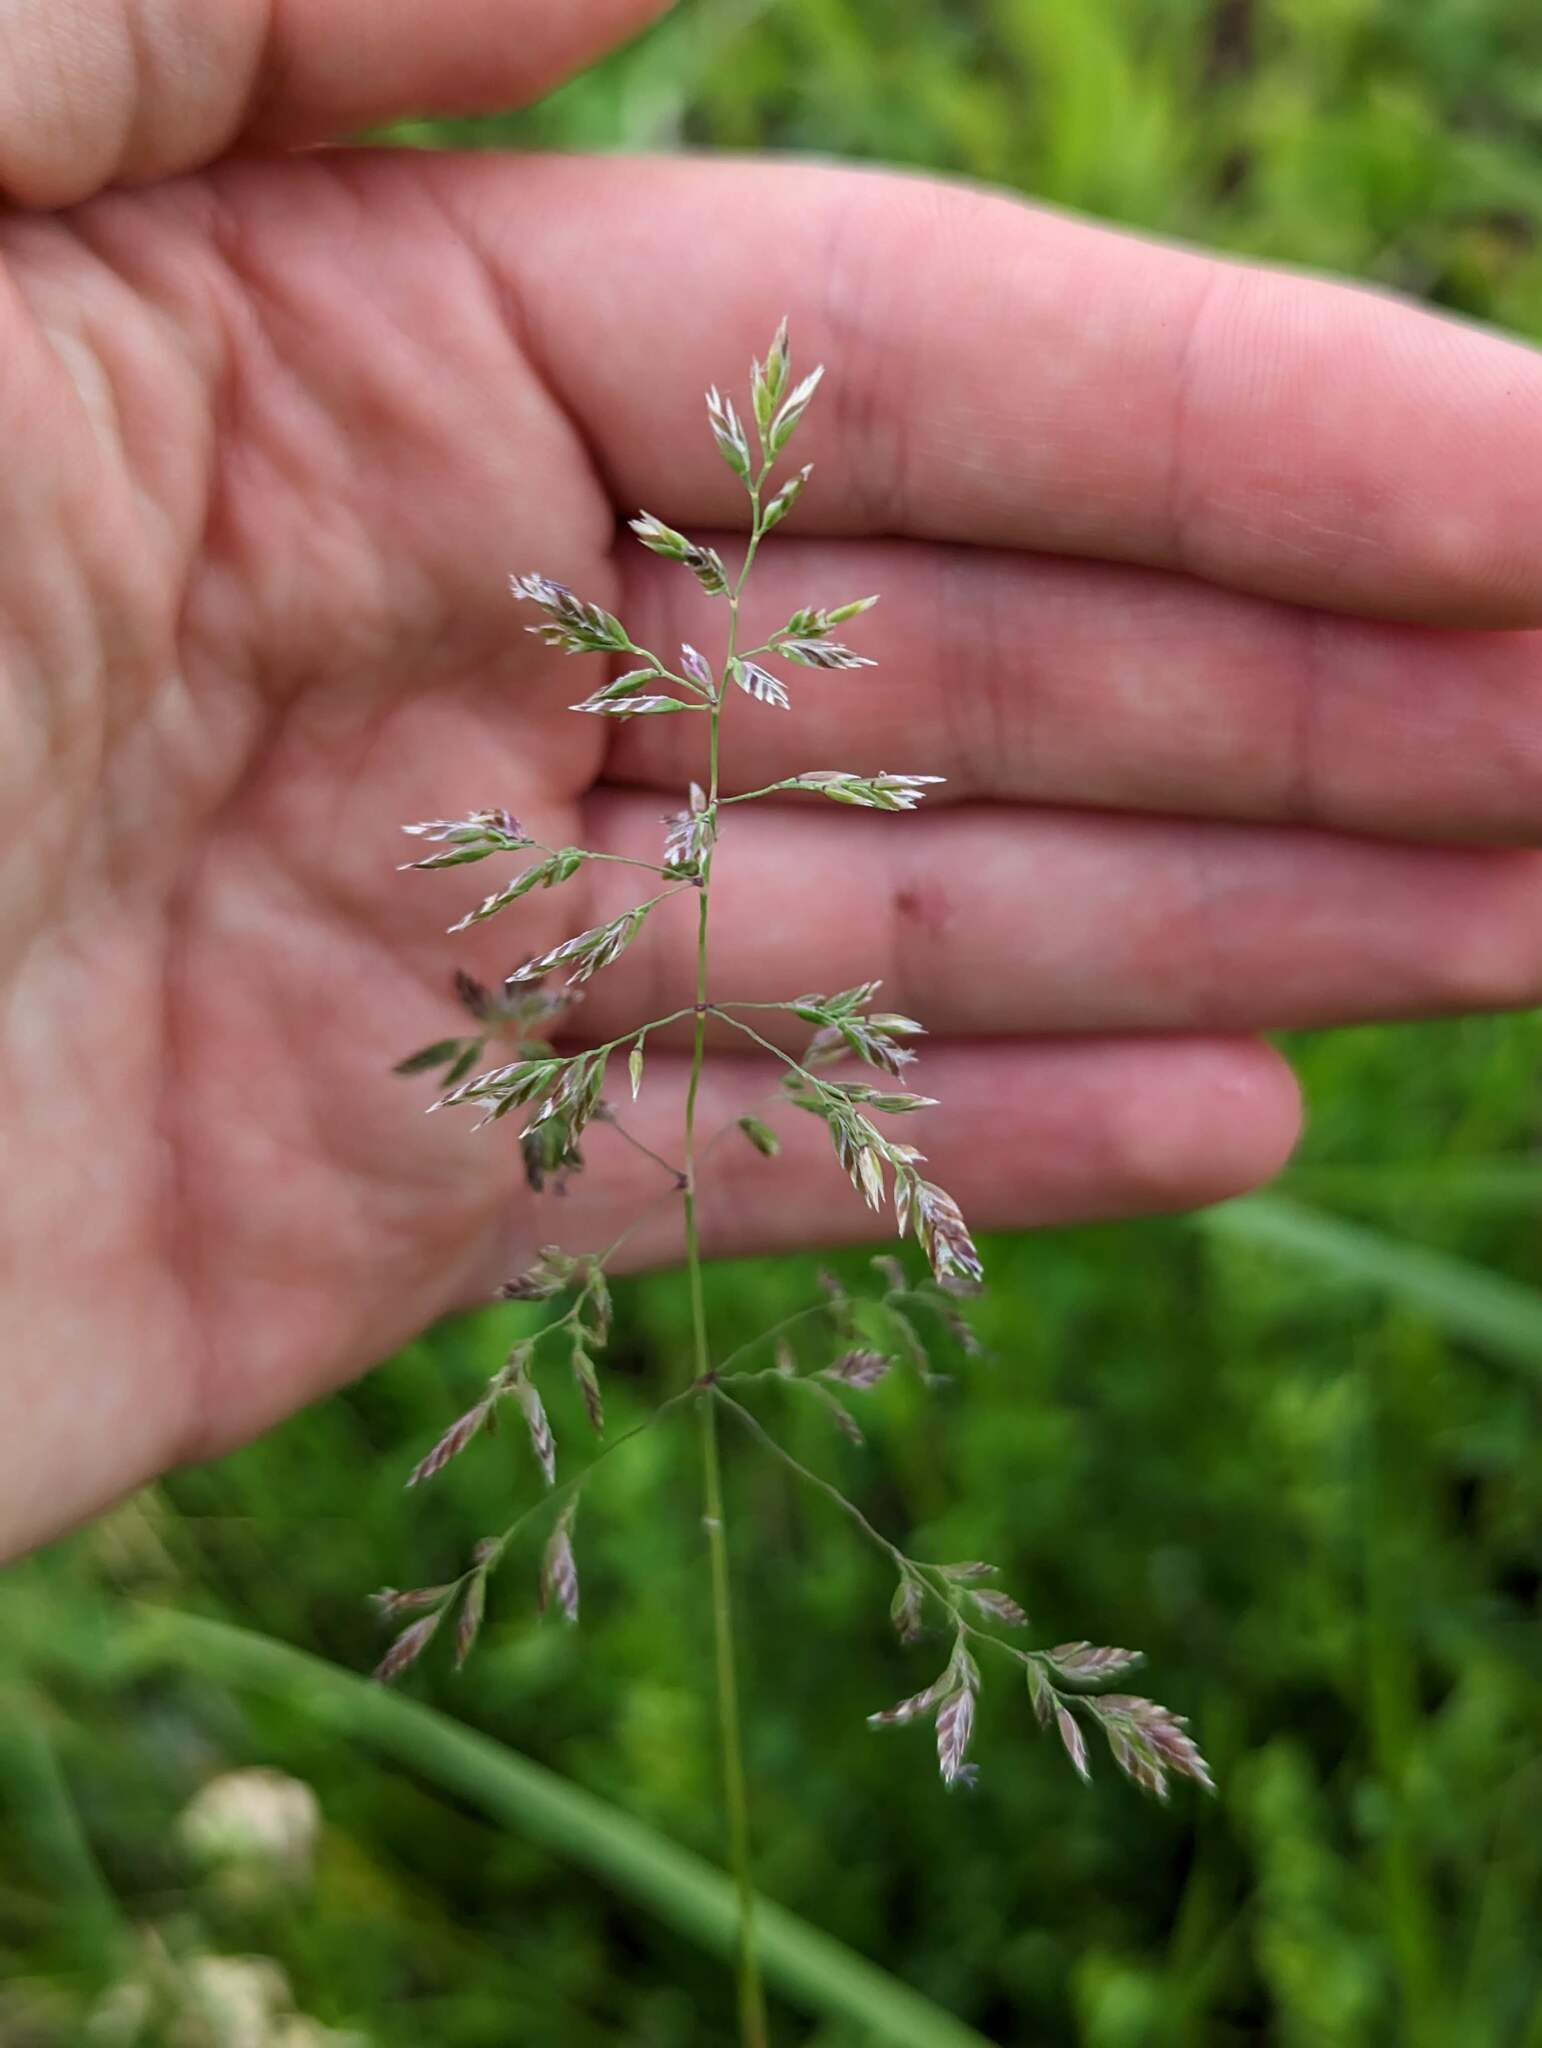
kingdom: Plantae
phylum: Tracheophyta
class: Liliopsida
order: Poales
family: Poaceae
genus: Poa
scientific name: Poa pratensis
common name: Kentucky bluegrass
